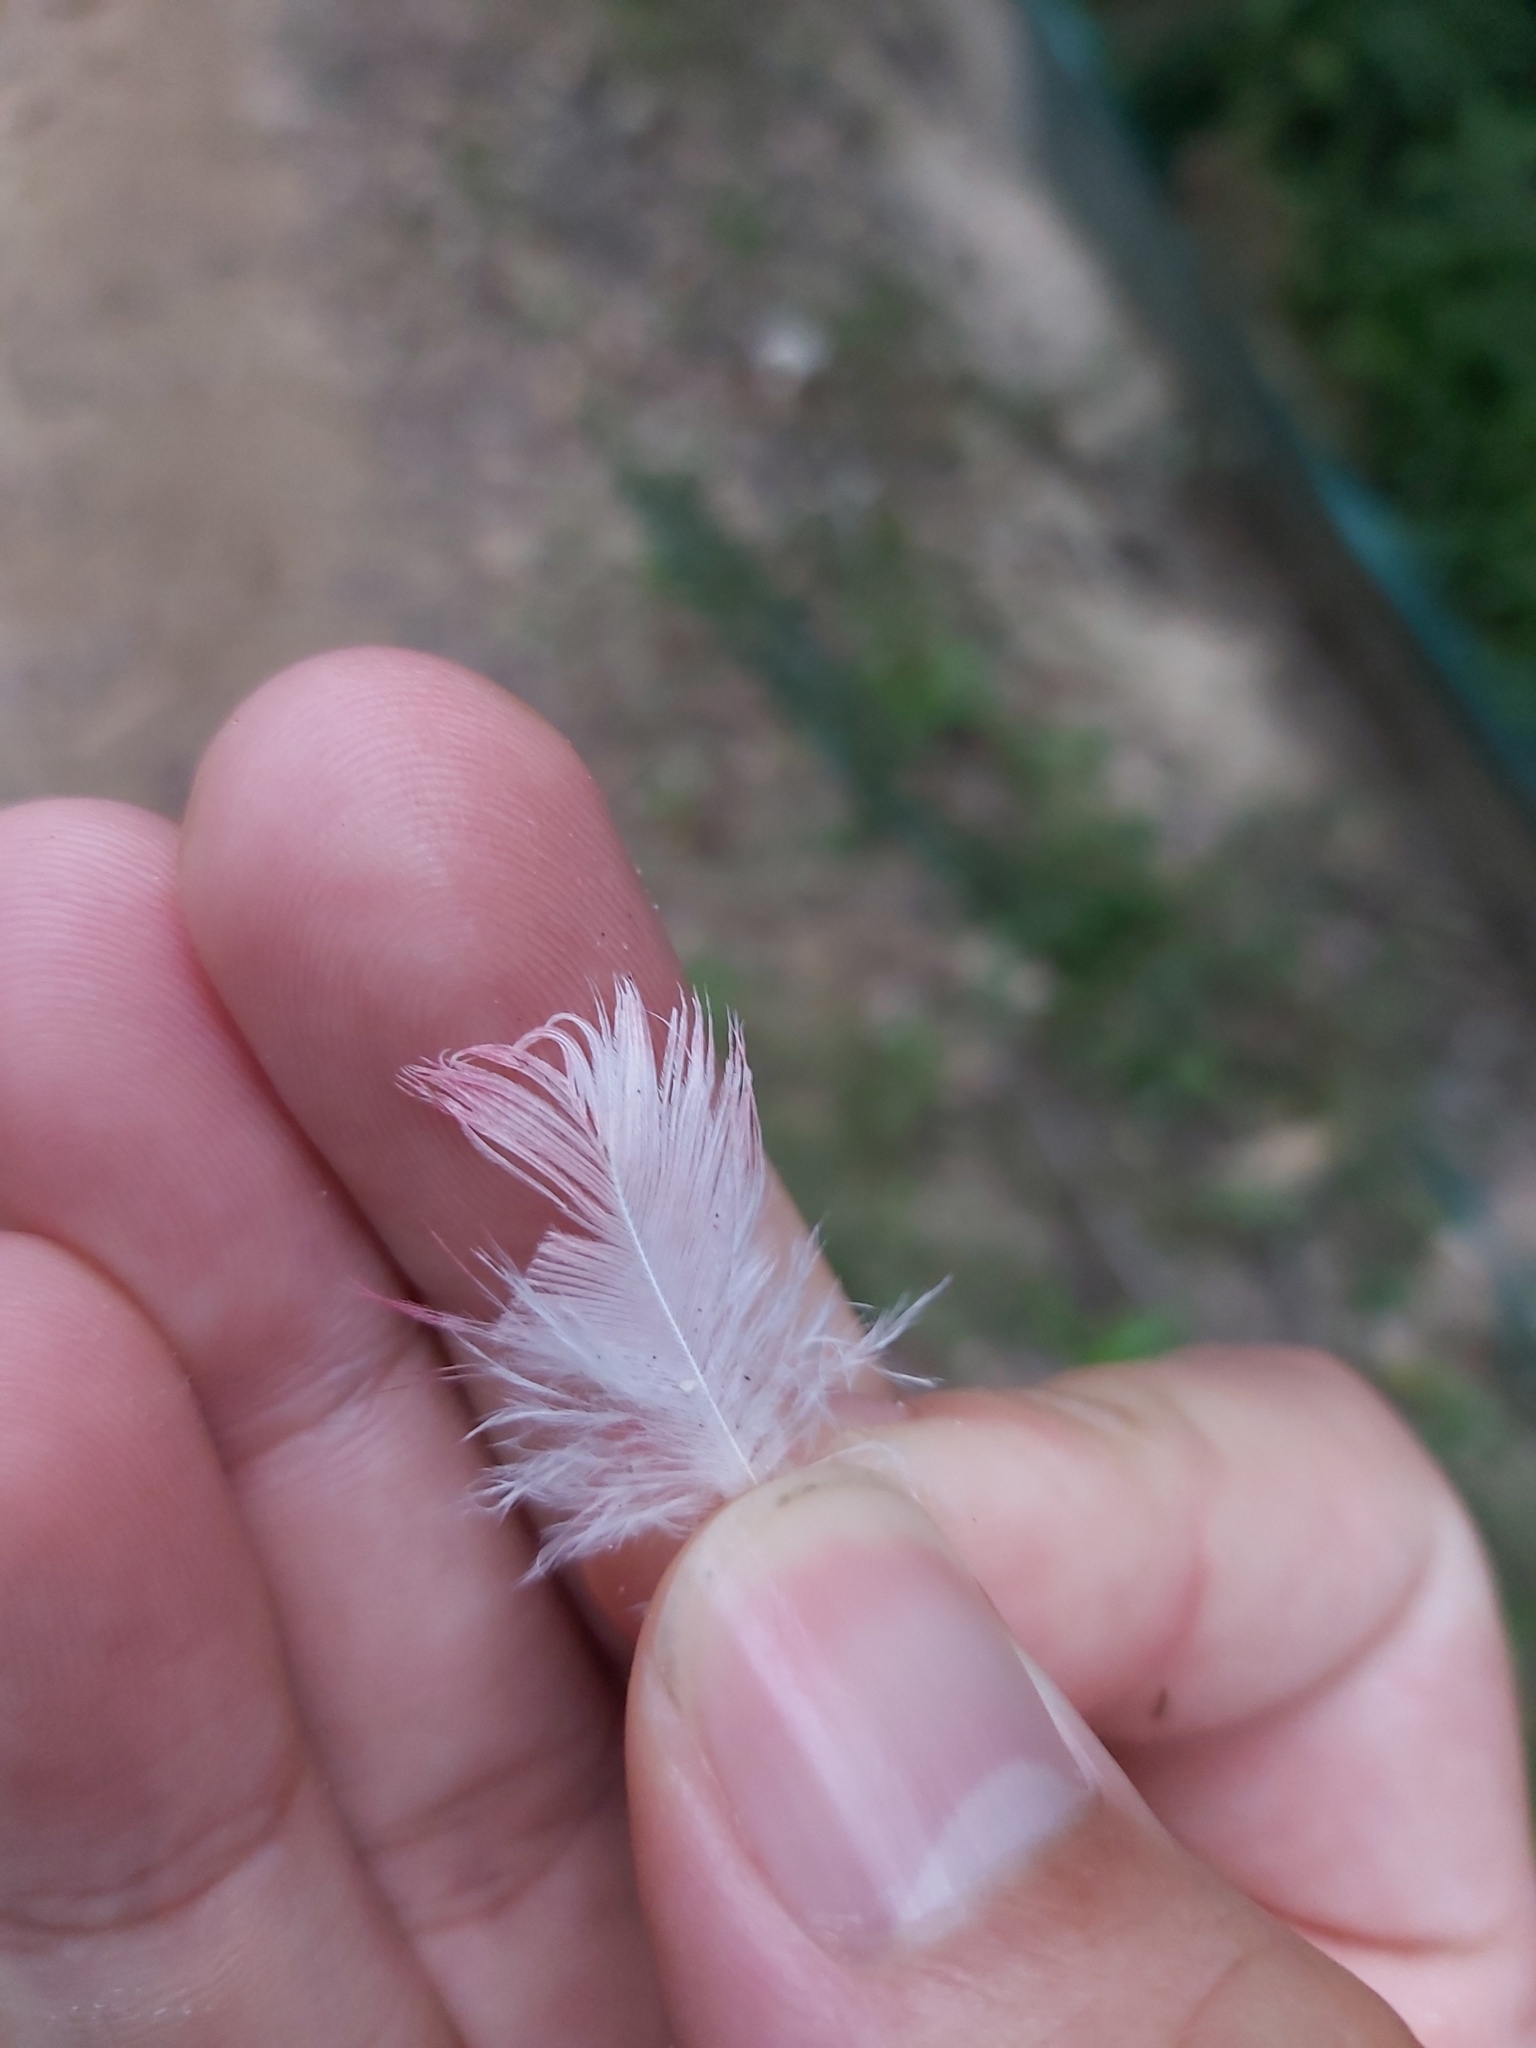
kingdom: Animalia
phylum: Chordata
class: Aves
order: Psittaciformes
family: Psittacidae
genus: Eolophus
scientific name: Eolophus roseicapilla
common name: Galah
